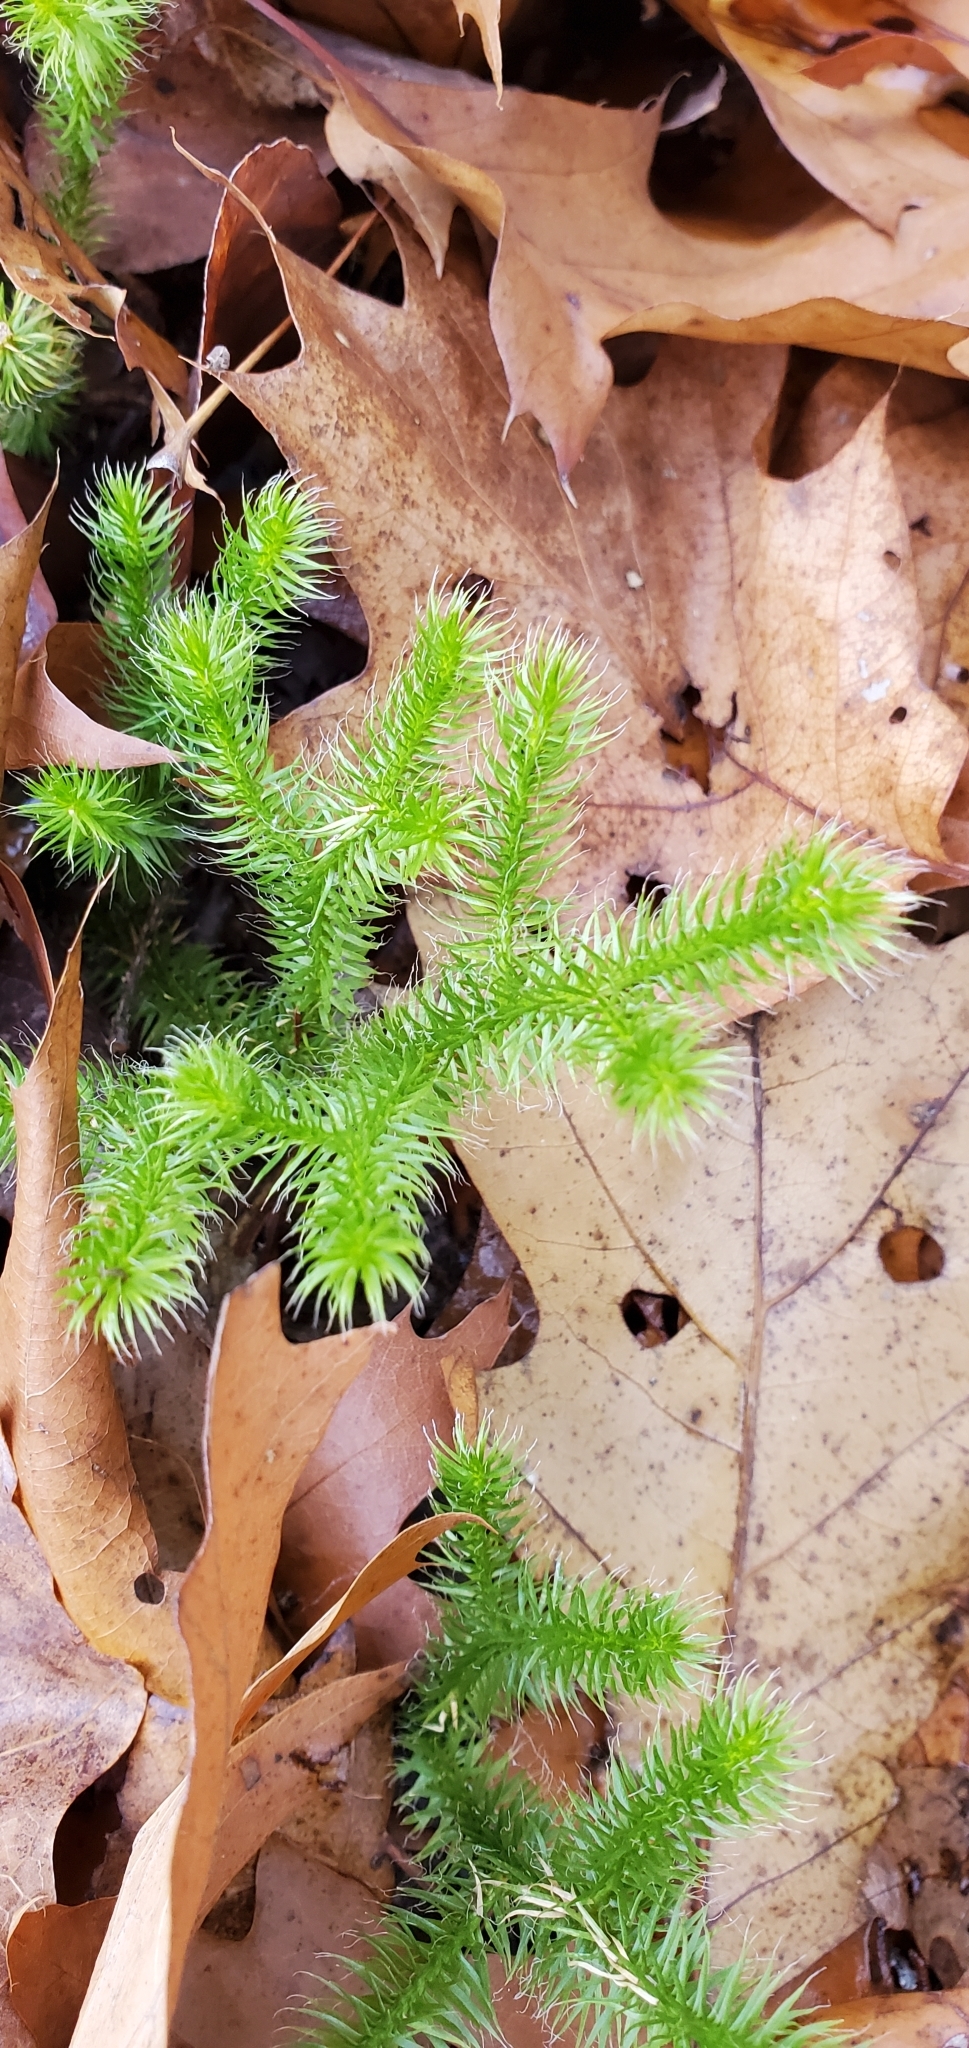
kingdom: Plantae
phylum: Tracheophyta
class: Lycopodiopsida
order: Lycopodiales
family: Lycopodiaceae
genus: Lycopodium
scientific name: Lycopodium clavatum
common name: Stag's-horn clubmoss
